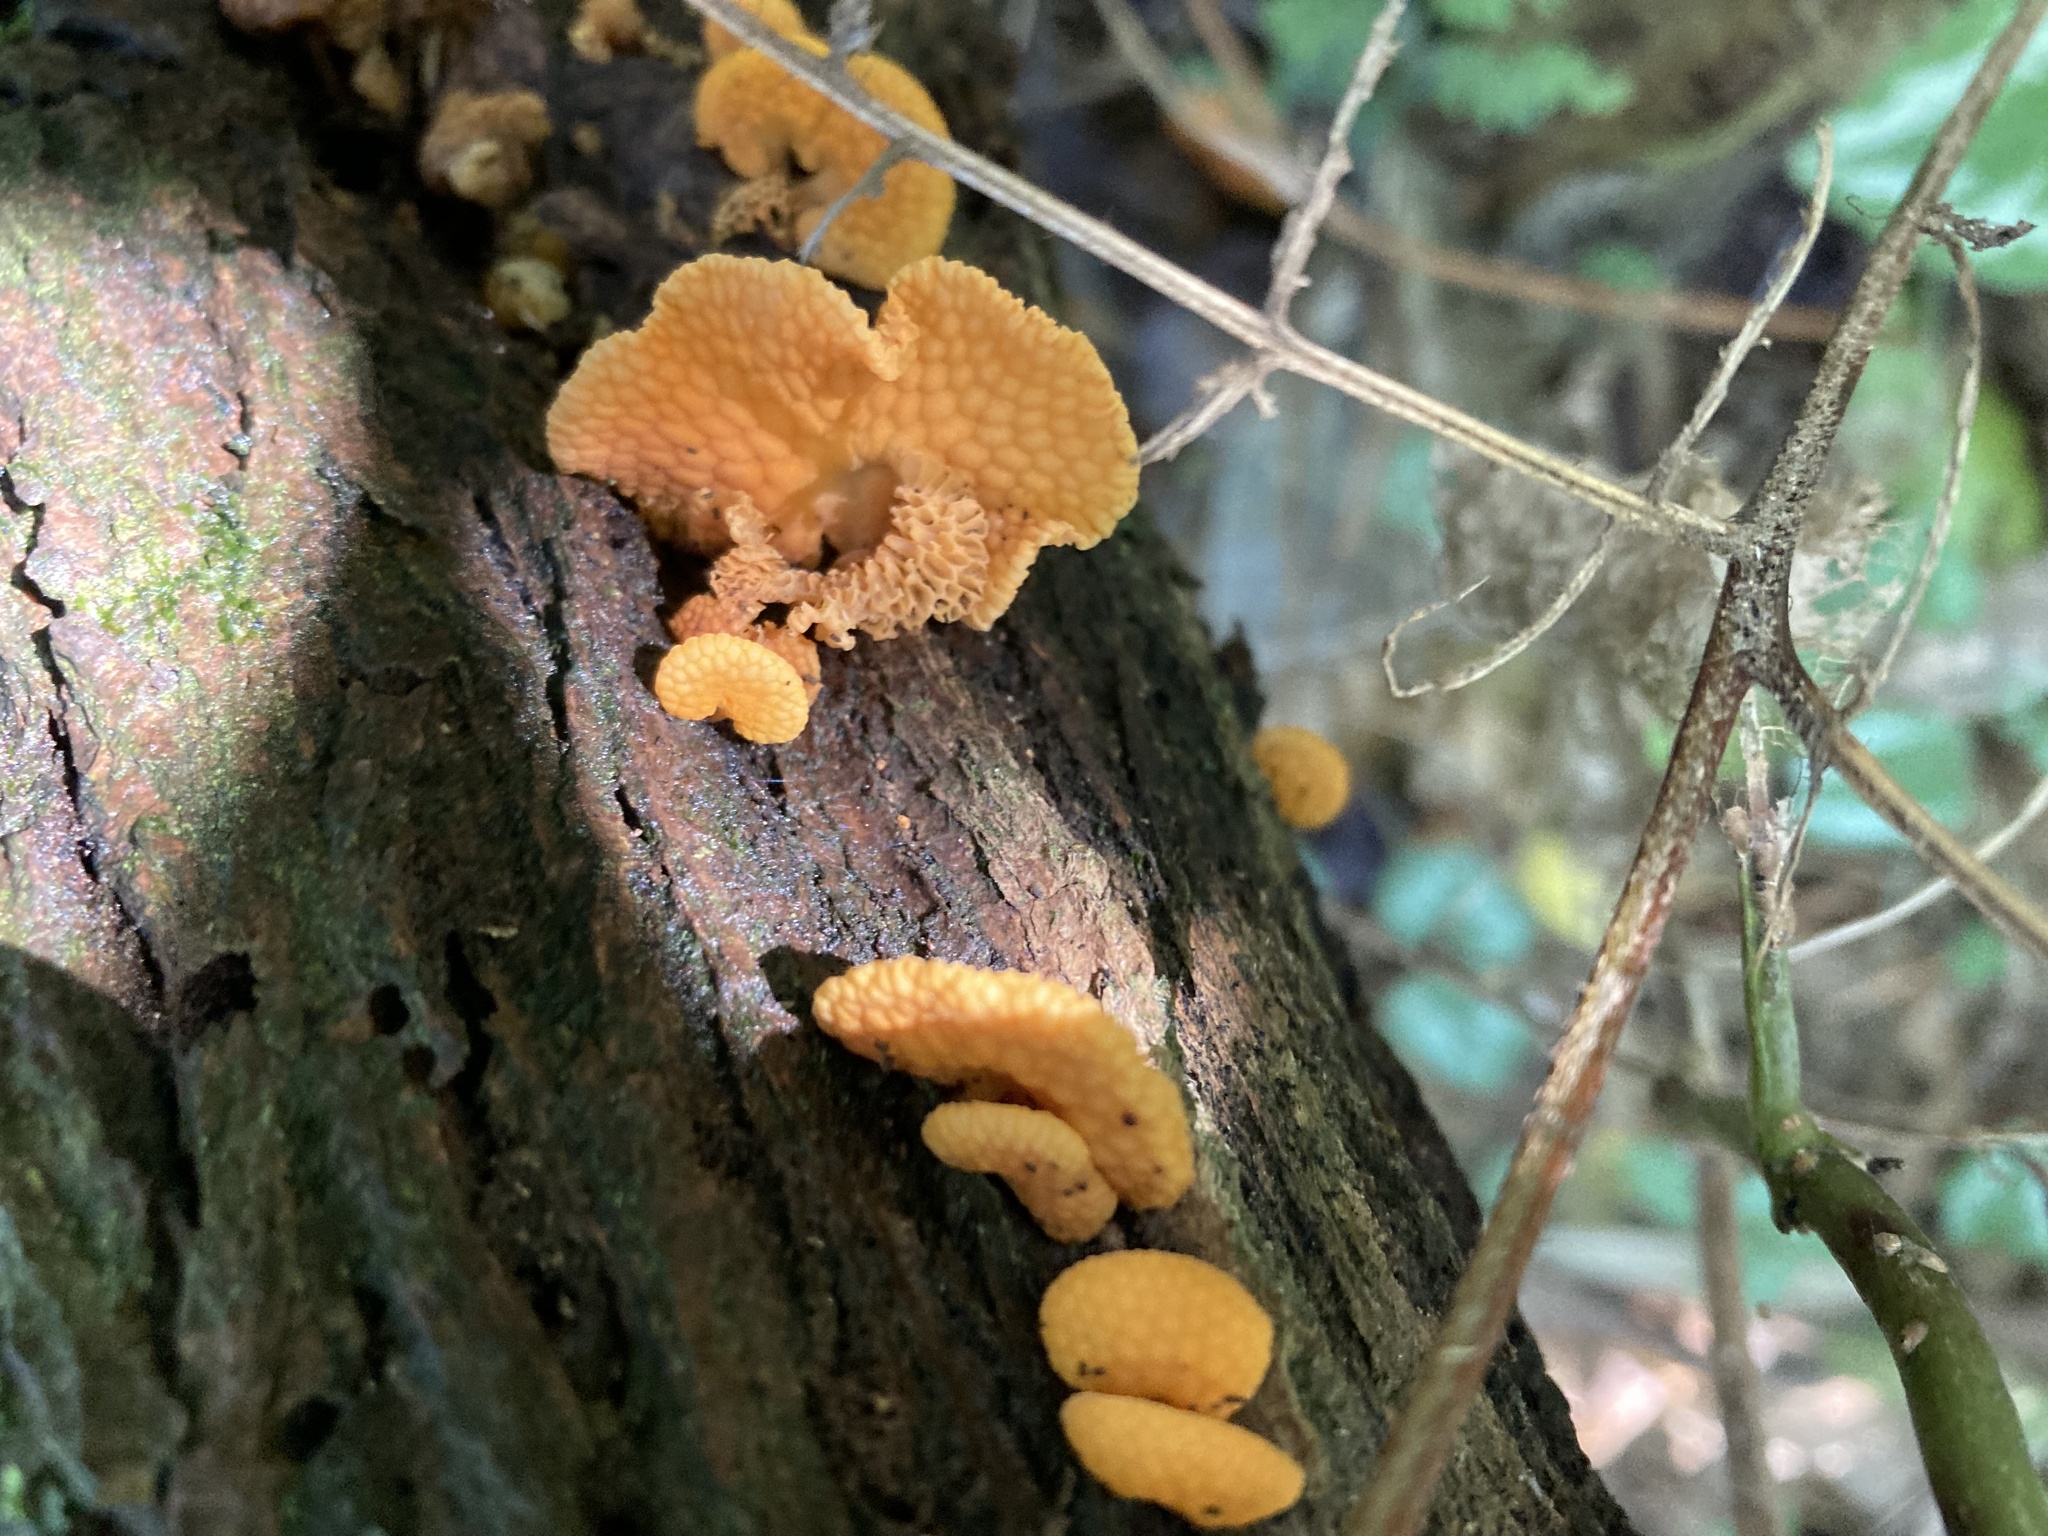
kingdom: Fungi
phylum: Basidiomycota
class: Agaricomycetes
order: Agaricales
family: Mycenaceae
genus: Favolaschia
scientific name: Favolaschia claudopus
